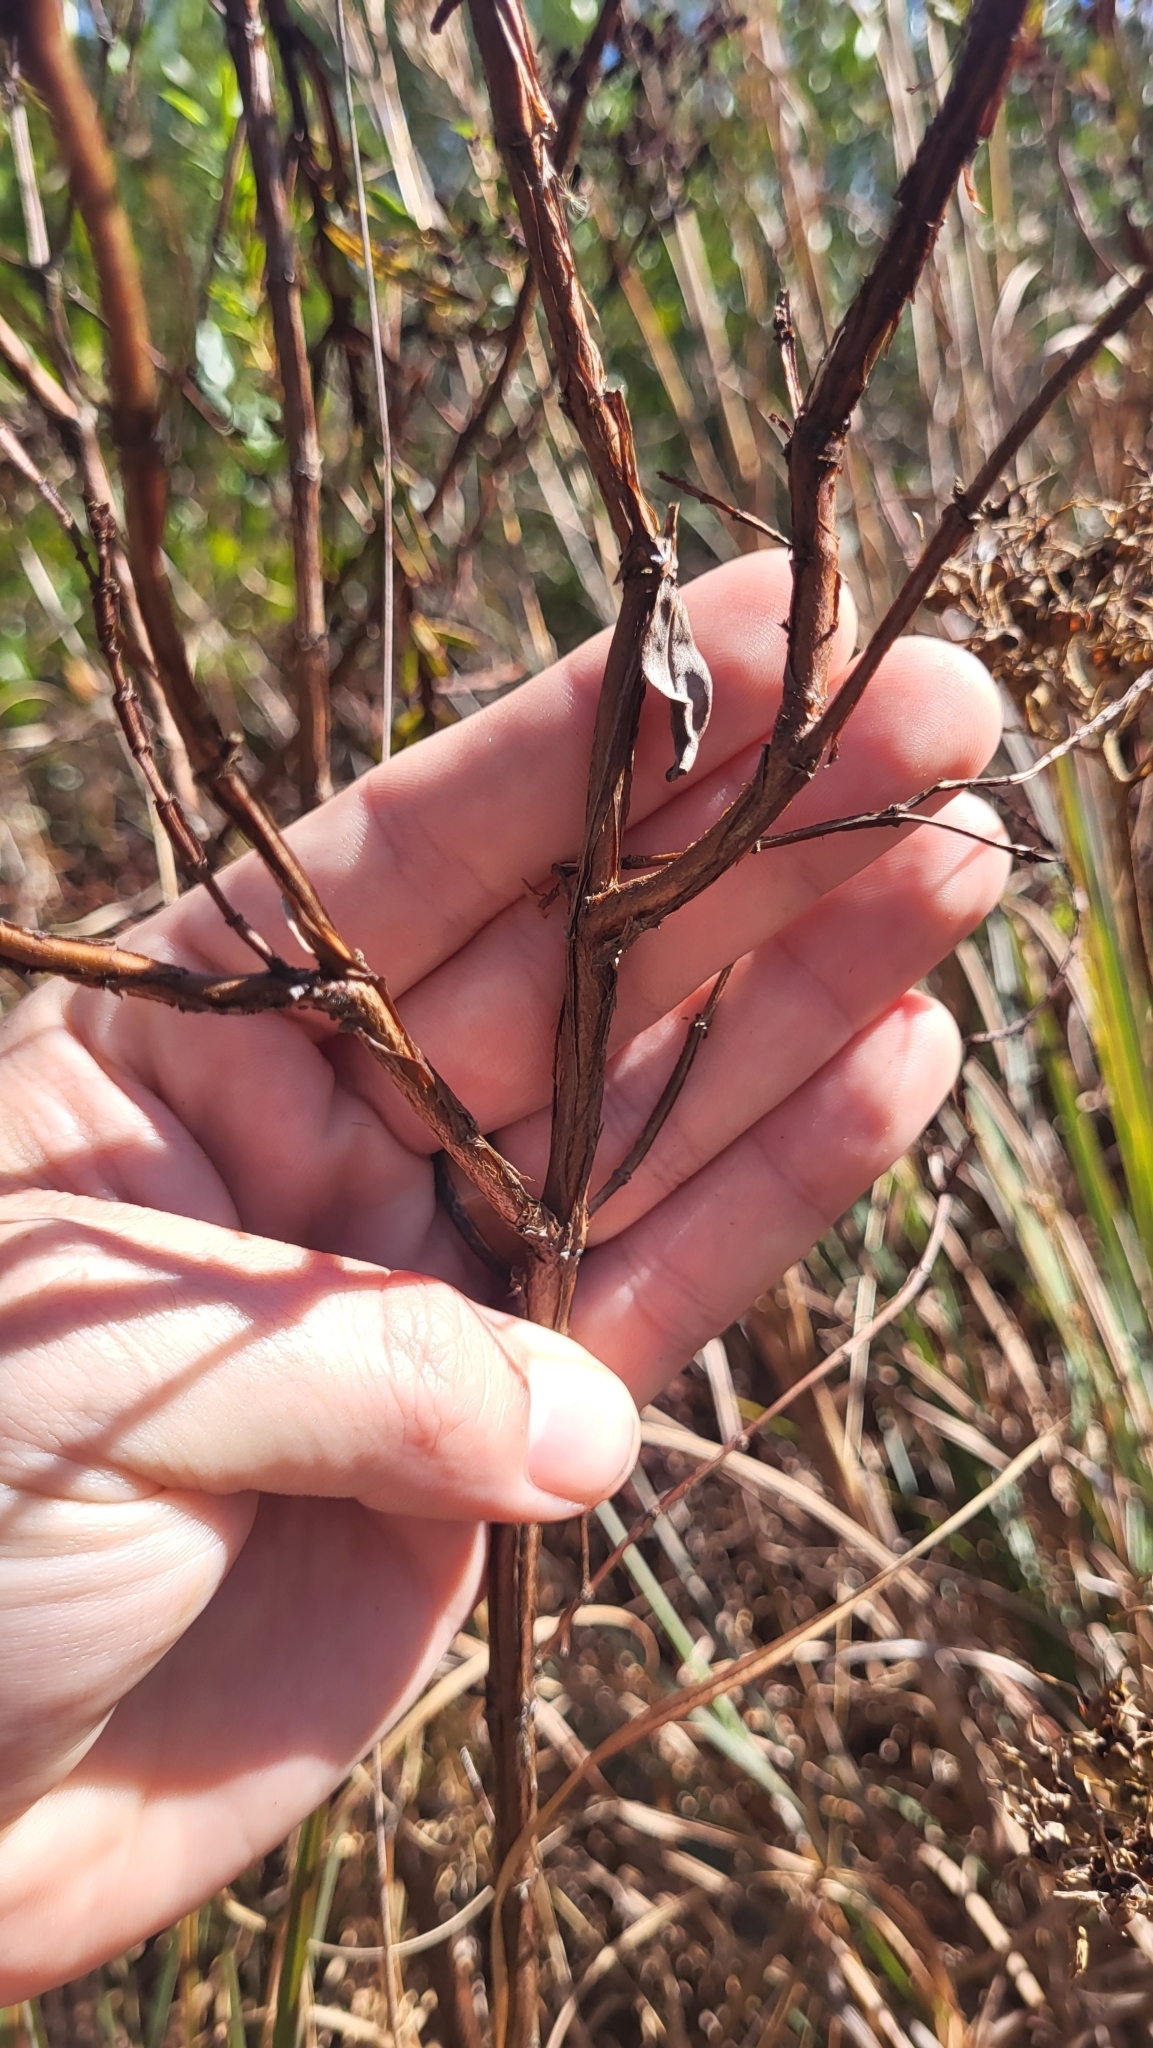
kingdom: Plantae
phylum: Tracheophyta
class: Magnoliopsida
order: Malpighiales
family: Hypericaceae
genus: Hypericum
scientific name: Hypericum cistifolium
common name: Round-pod st. john's-wort
